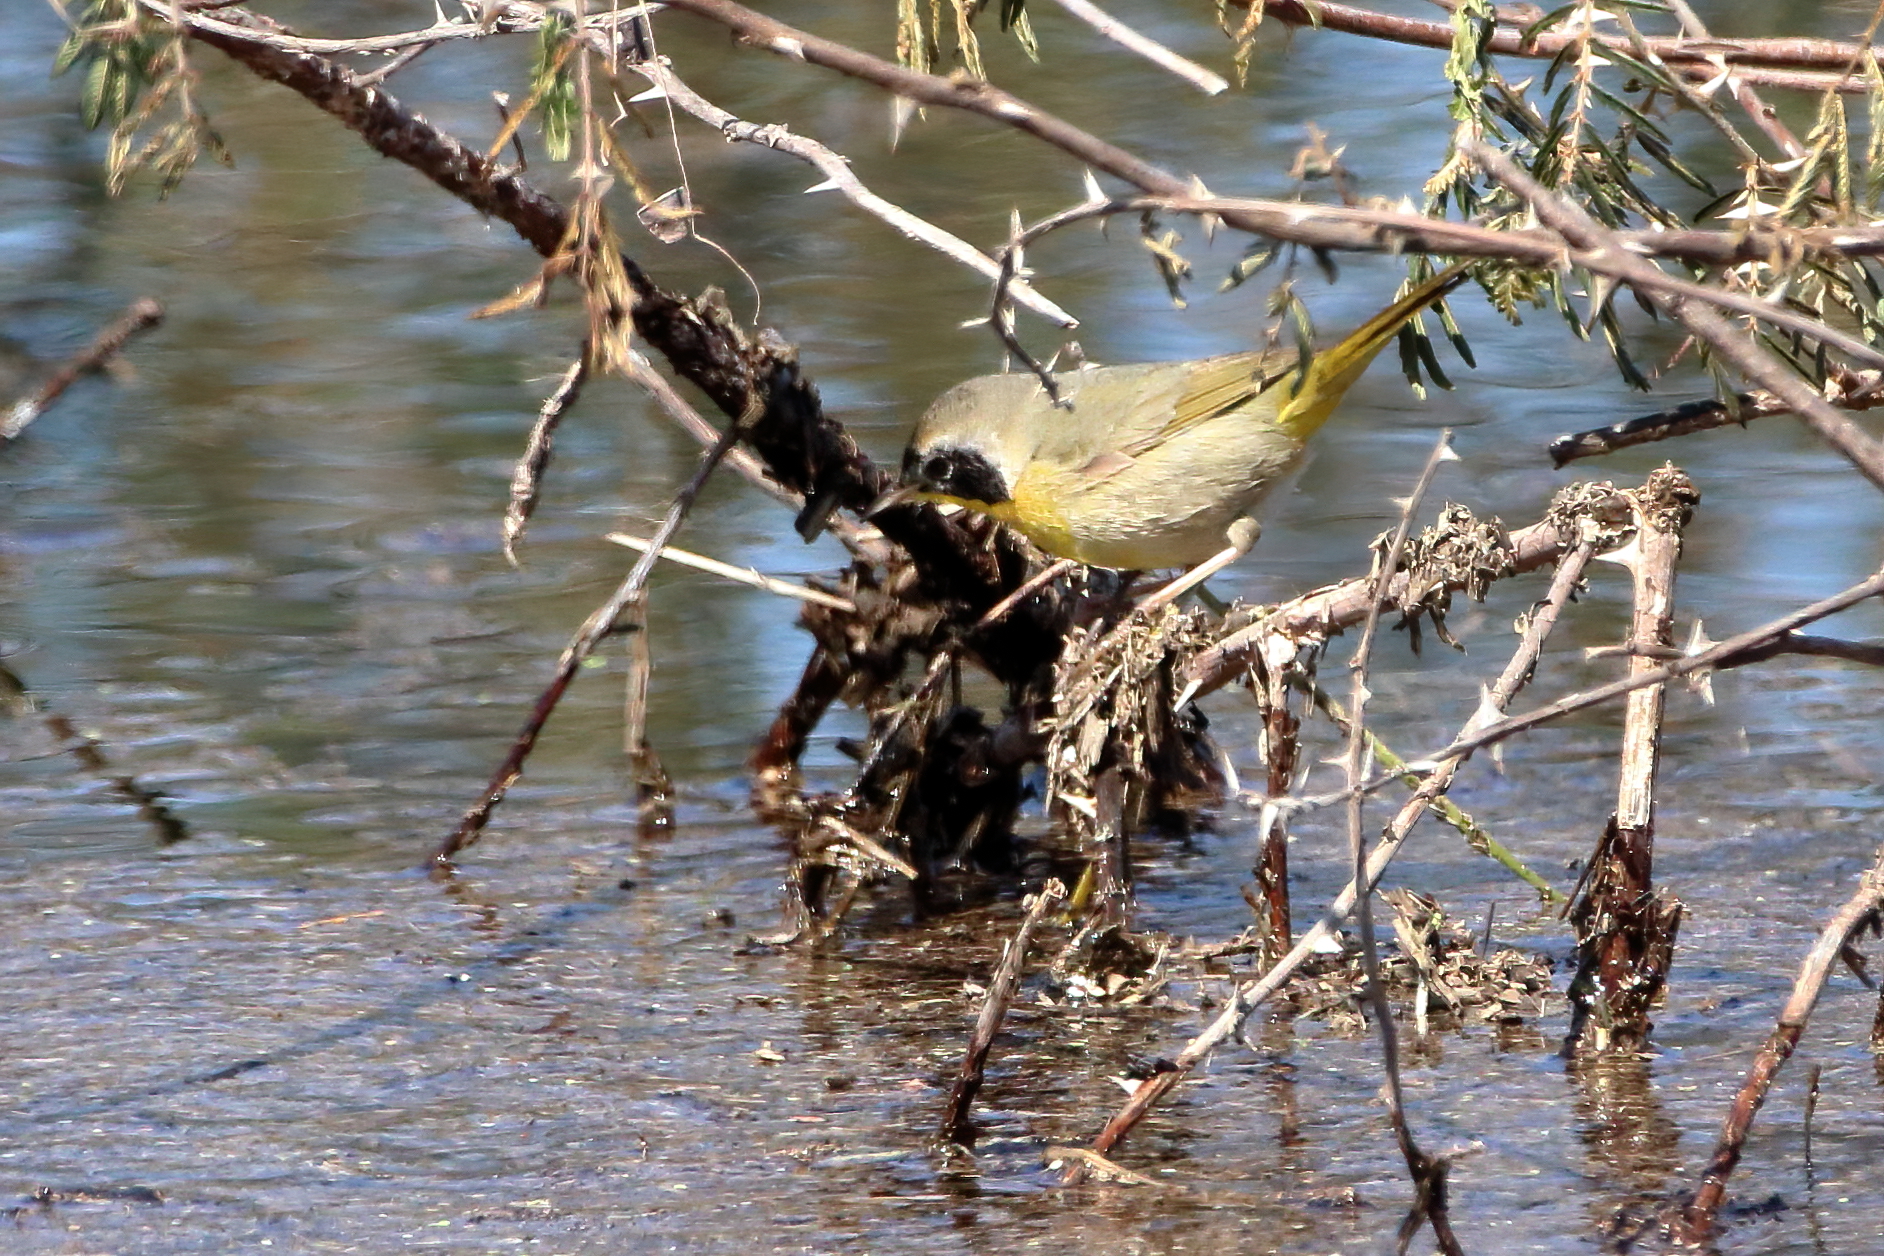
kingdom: Animalia
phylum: Chordata
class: Aves
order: Passeriformes
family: Parulidae
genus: Geothlypis
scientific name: Geothlypis trichas
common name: Common yellowthroat
